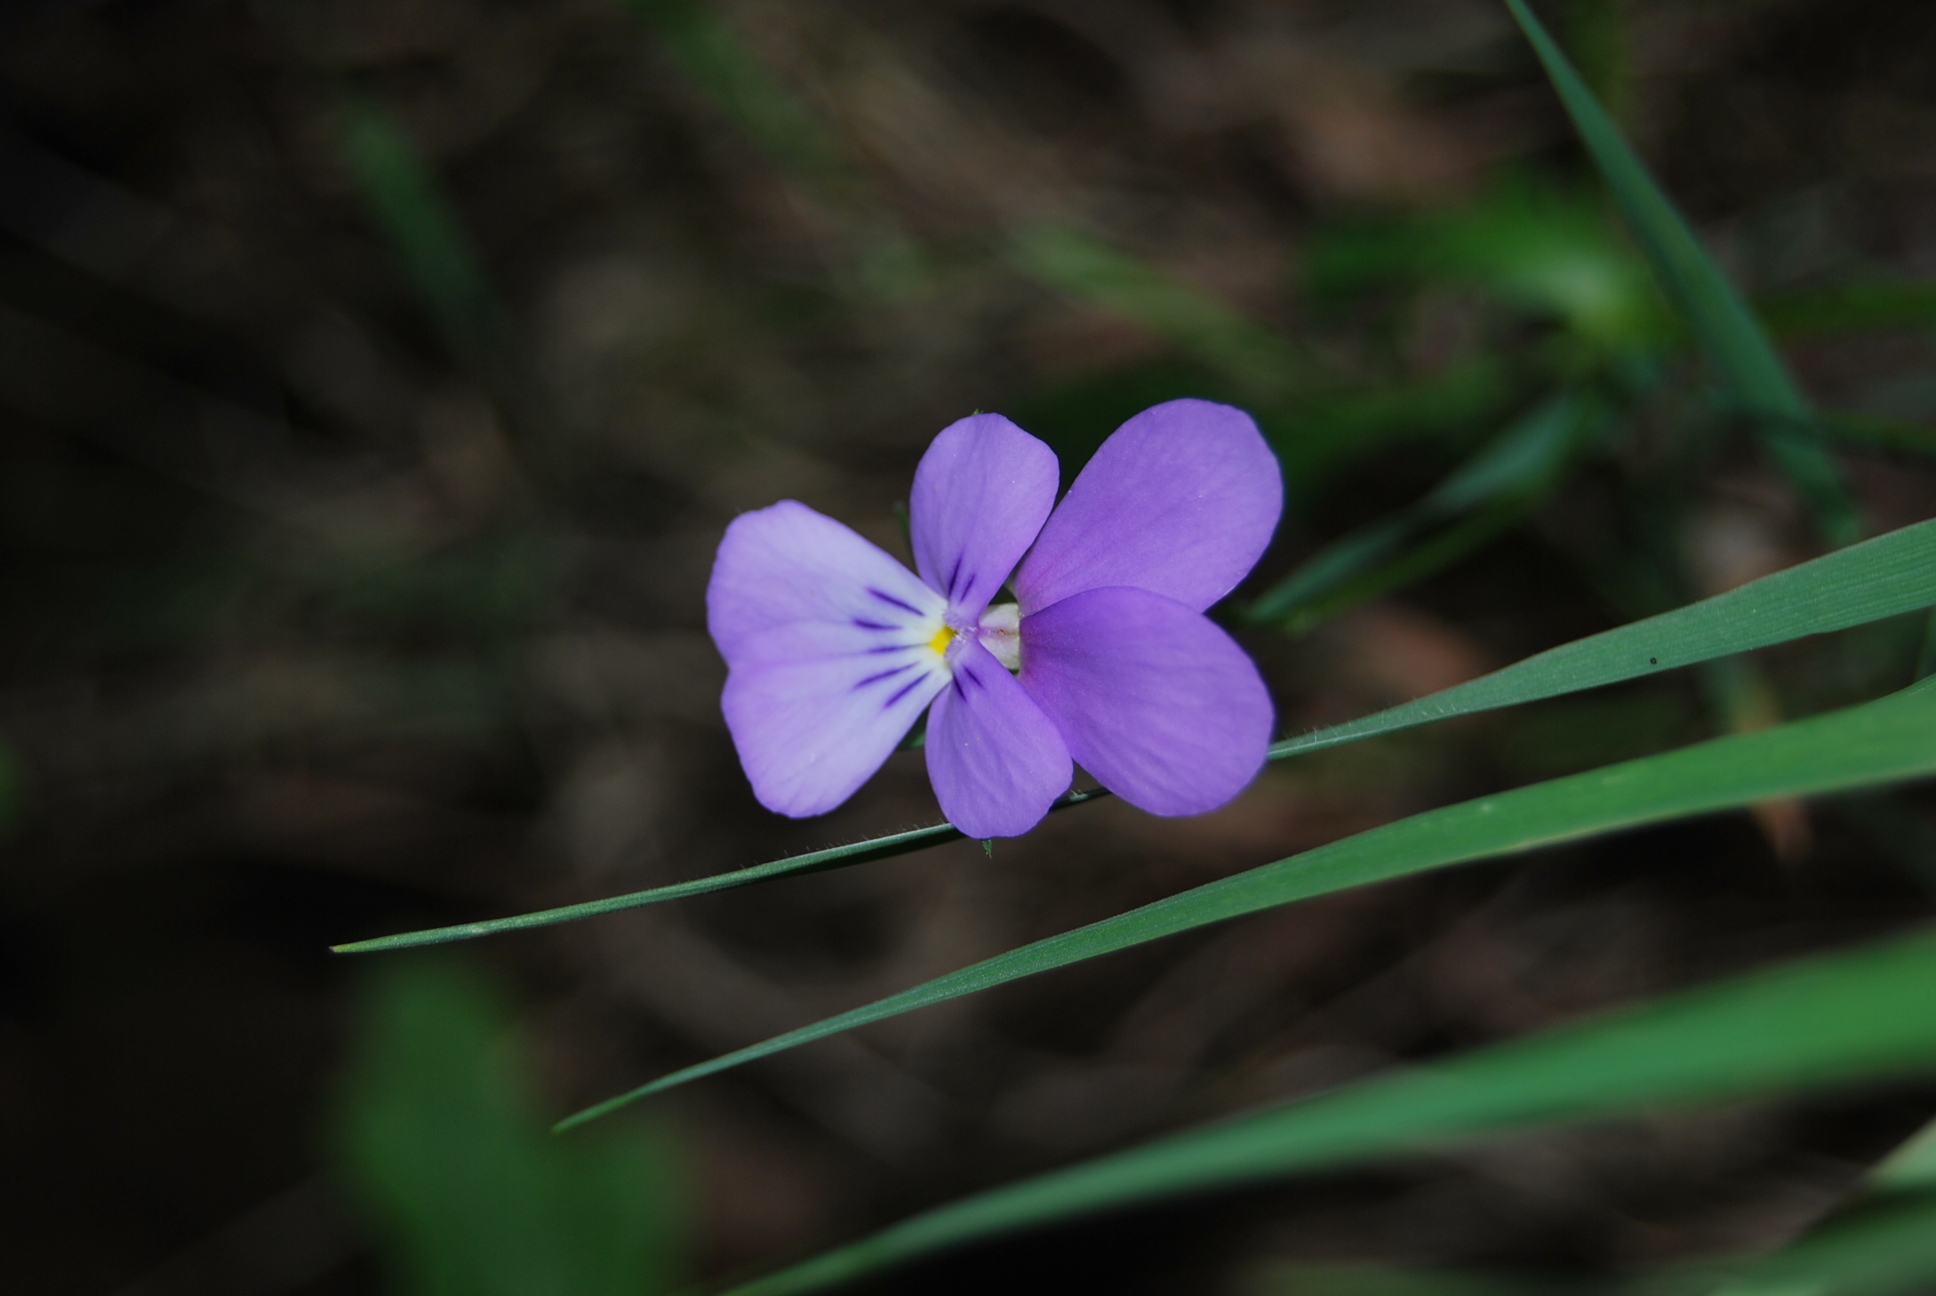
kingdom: Plantae
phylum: Tracheophyta
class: Magnoliopsida
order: Malpighiales
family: Violaceae
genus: Viola
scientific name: Viola bubanii
